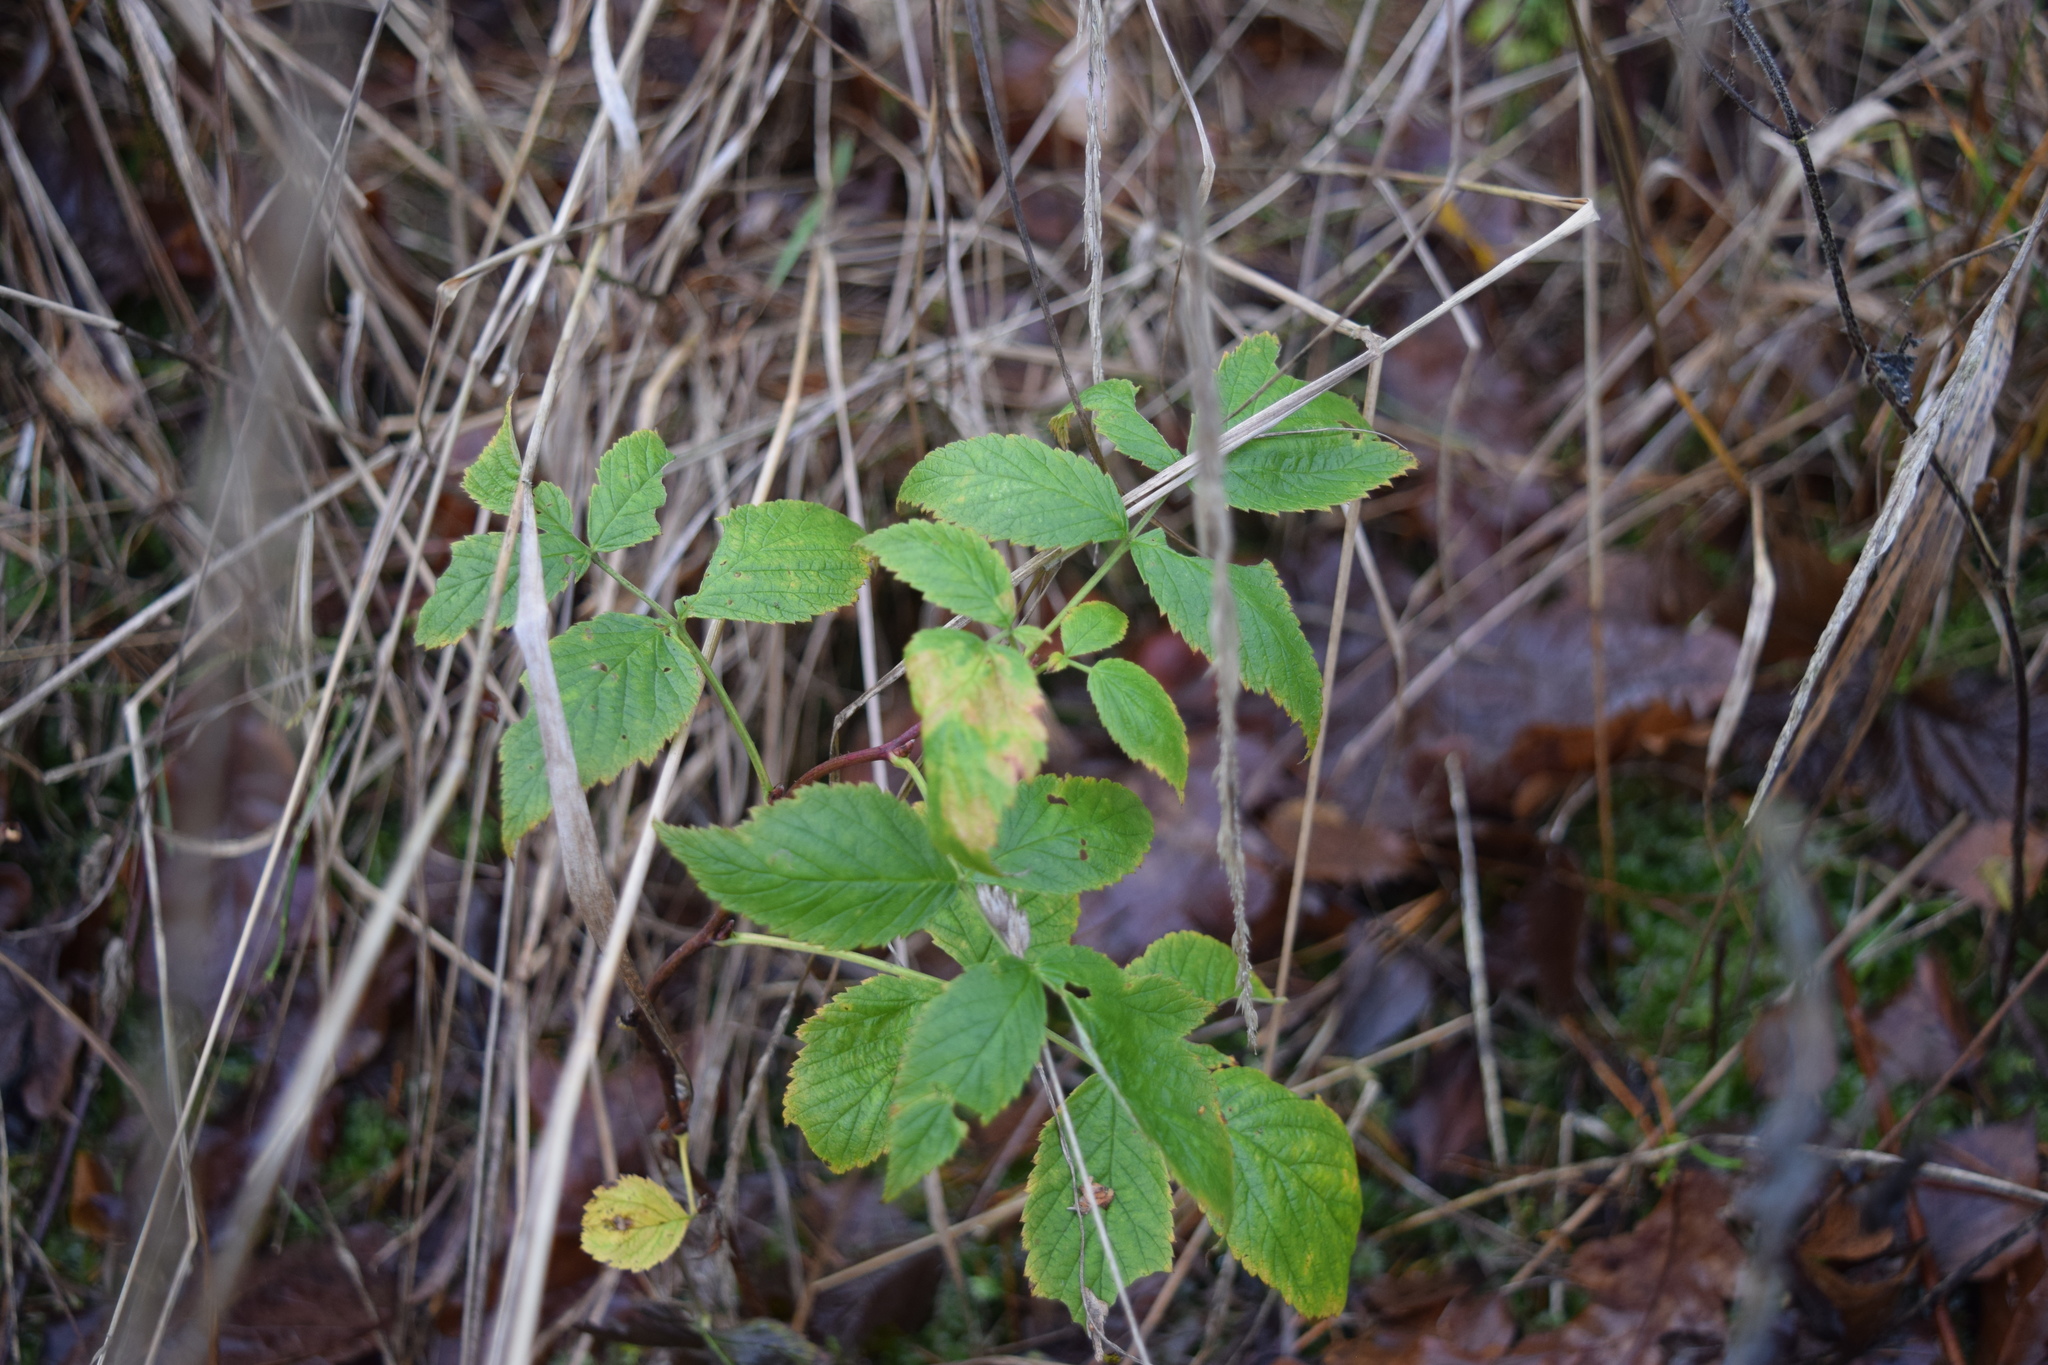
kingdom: Plantae
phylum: Tracheophyta
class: Magnoliopsida
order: Rosales
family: Rosaceae
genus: Rubus
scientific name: Rubus idaeus
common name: Raspberry
